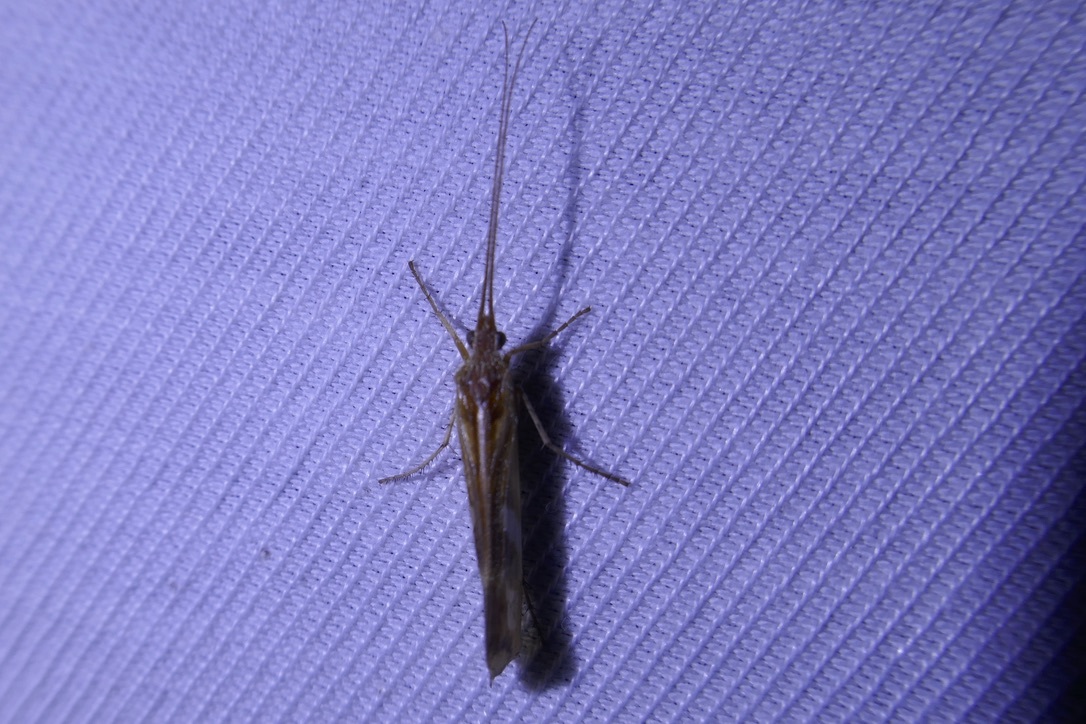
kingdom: Animalia
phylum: Arthropoda
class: Insecta
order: Trichoptera
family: Limnephilidae
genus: Limnephilus
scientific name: Limnephilus lunatus
